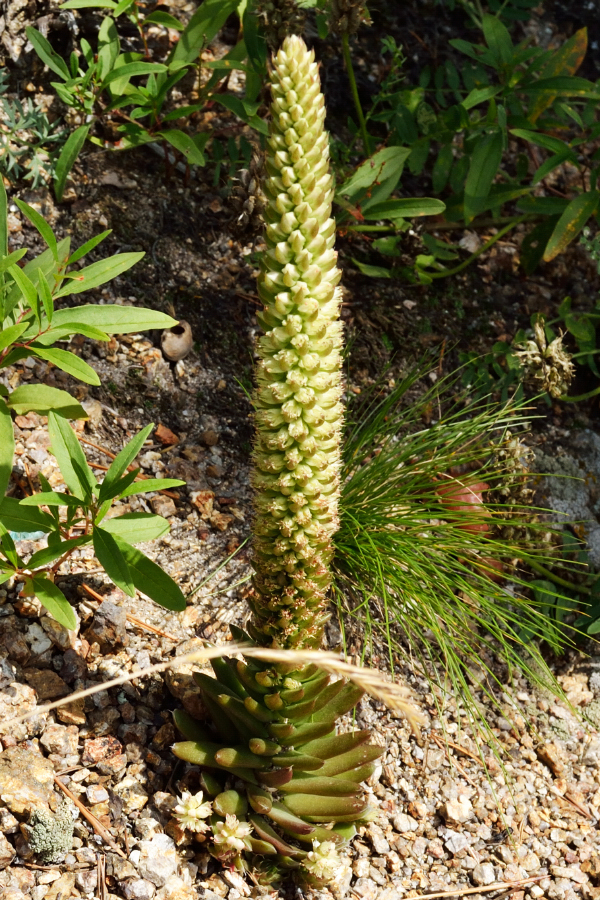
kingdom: Plantae
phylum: Tracheophyta
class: Magnoliopsida
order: Saxifragales
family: Crassulaceae
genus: Orostachys
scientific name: Orostachys spinosa
